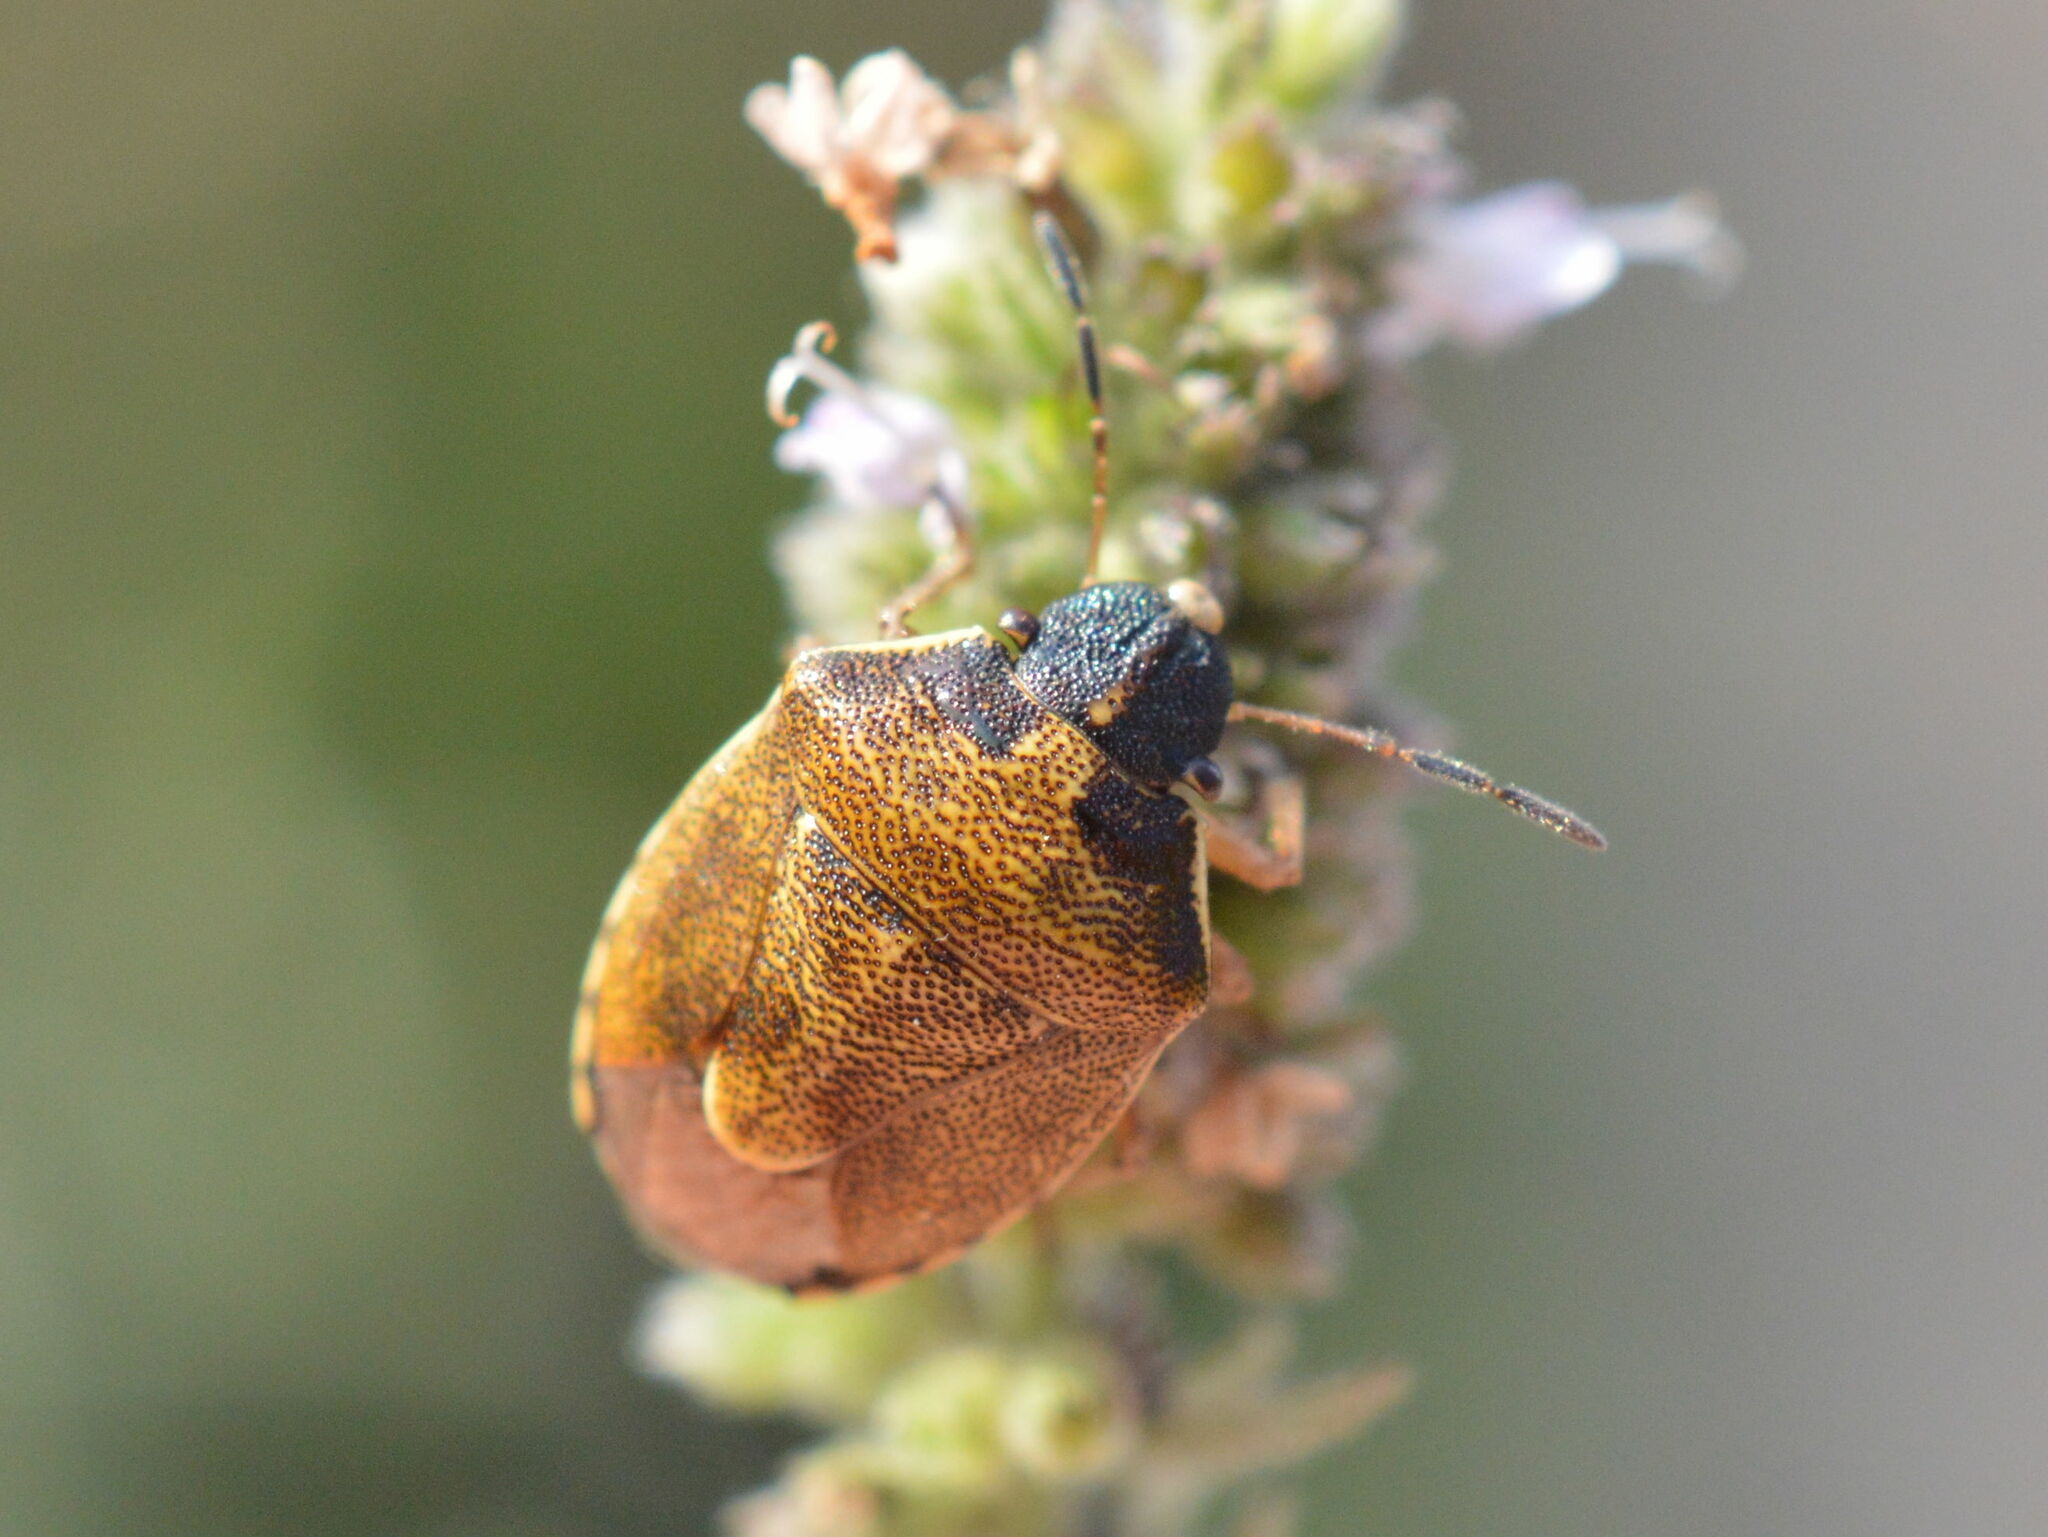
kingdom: Animalia
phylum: Arthropoda
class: Insecta
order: Hemiptera
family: Pentatomidae
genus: Rubiconia
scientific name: Rubiconia intermedia
